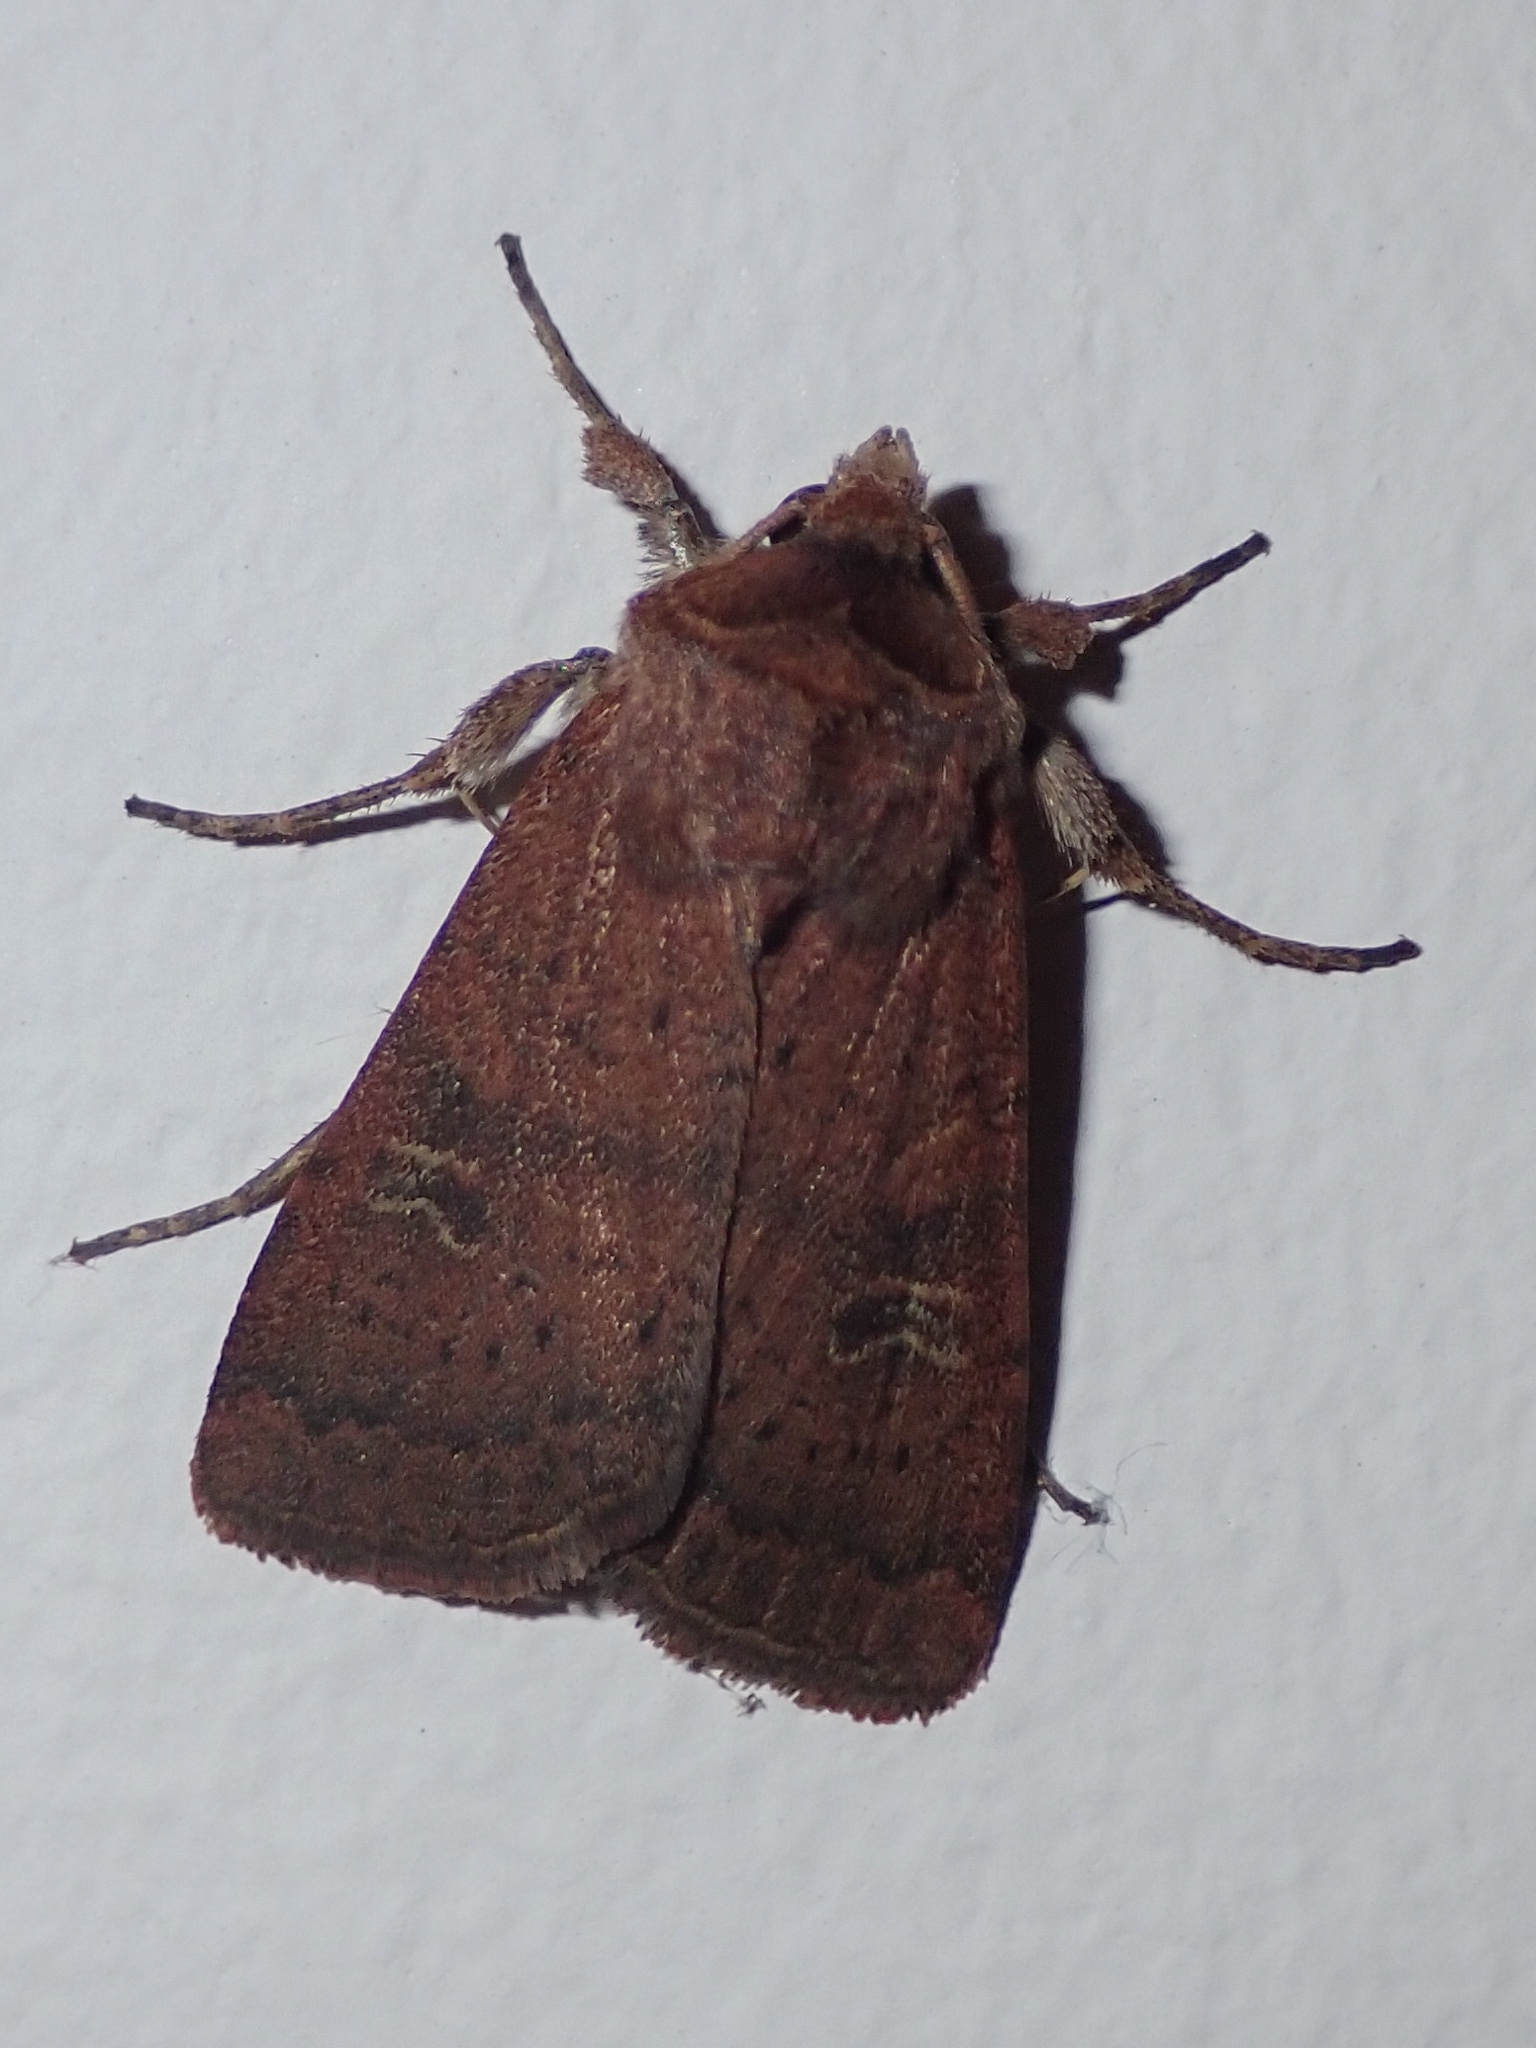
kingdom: Animalia
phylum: Arthropoda
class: Insecta
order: Lepidoptera
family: Noctuidae
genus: Xestia
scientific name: Xestia xanthographa
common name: Square-spot rustic
